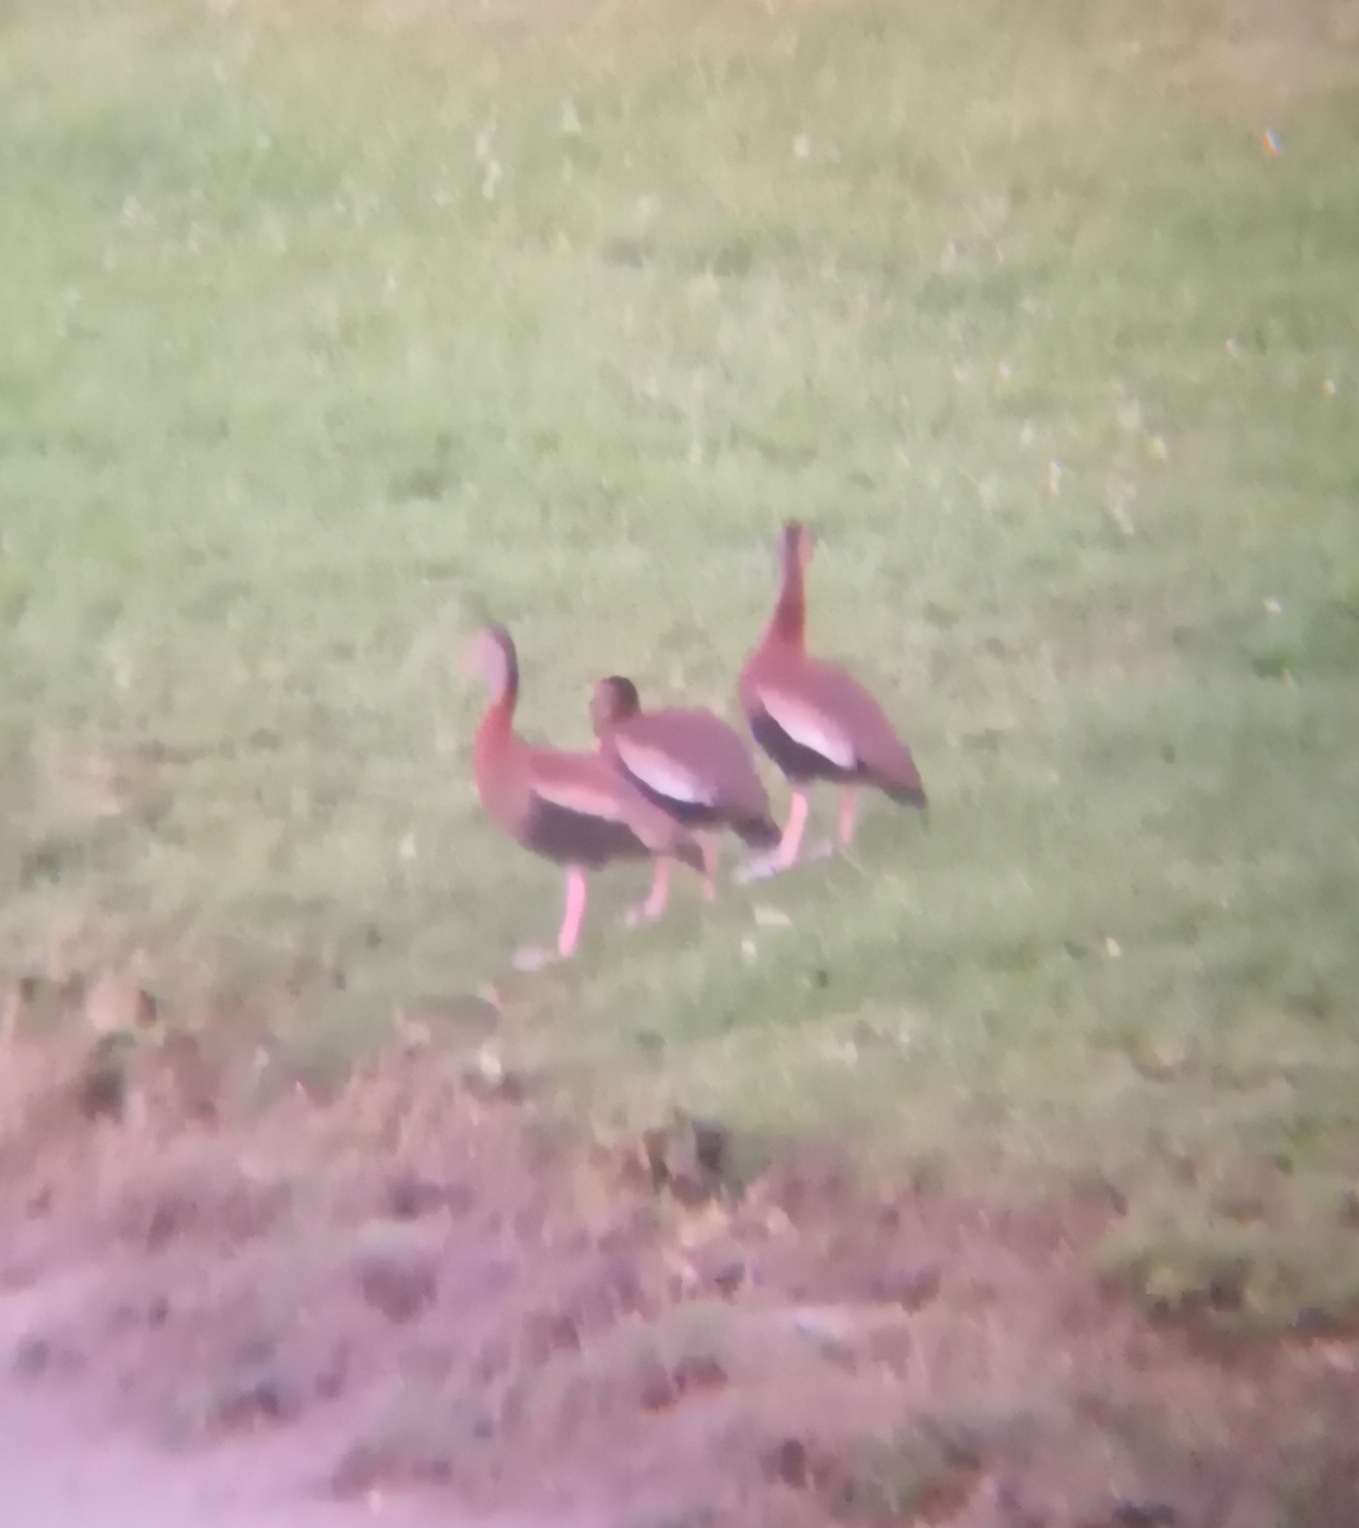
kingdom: Animalia
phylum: Chordata
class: Aves
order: Anseriformes
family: Anatidae
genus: Dendrocygna
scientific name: Dendrocygna autumnalis
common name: Black-bellied whistling duck
